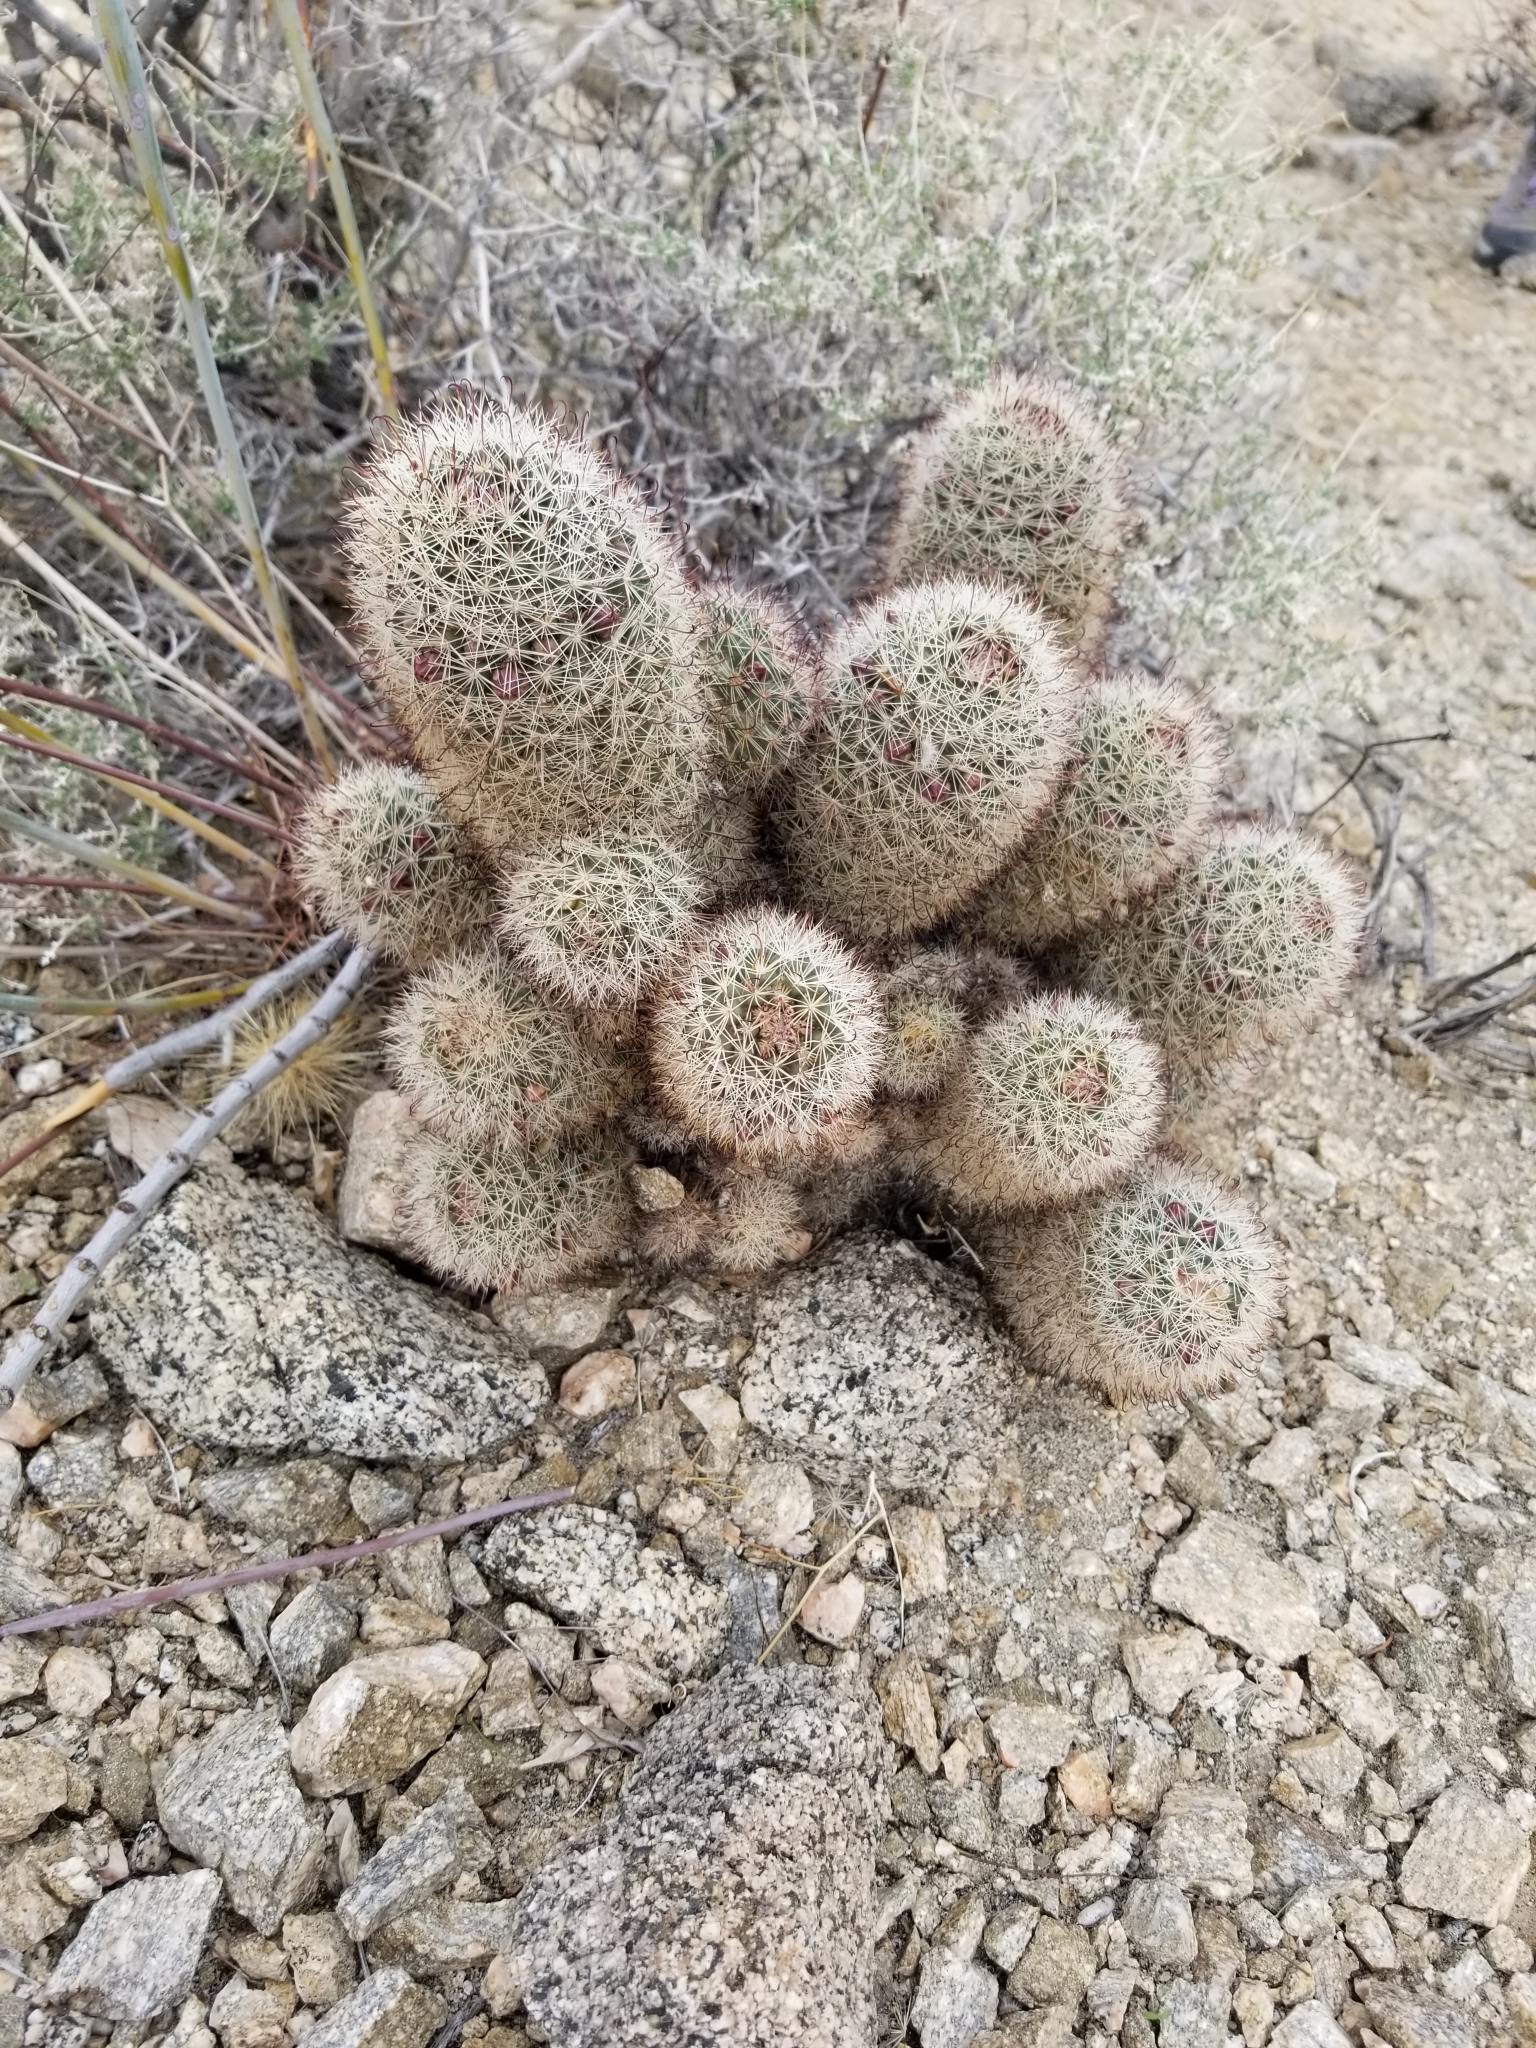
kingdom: Plantae
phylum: Tracheophyta
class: Magnoliopsida
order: Caryophyllales
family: Cactaceae
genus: Cochemiea
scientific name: Cochemiea dioica
